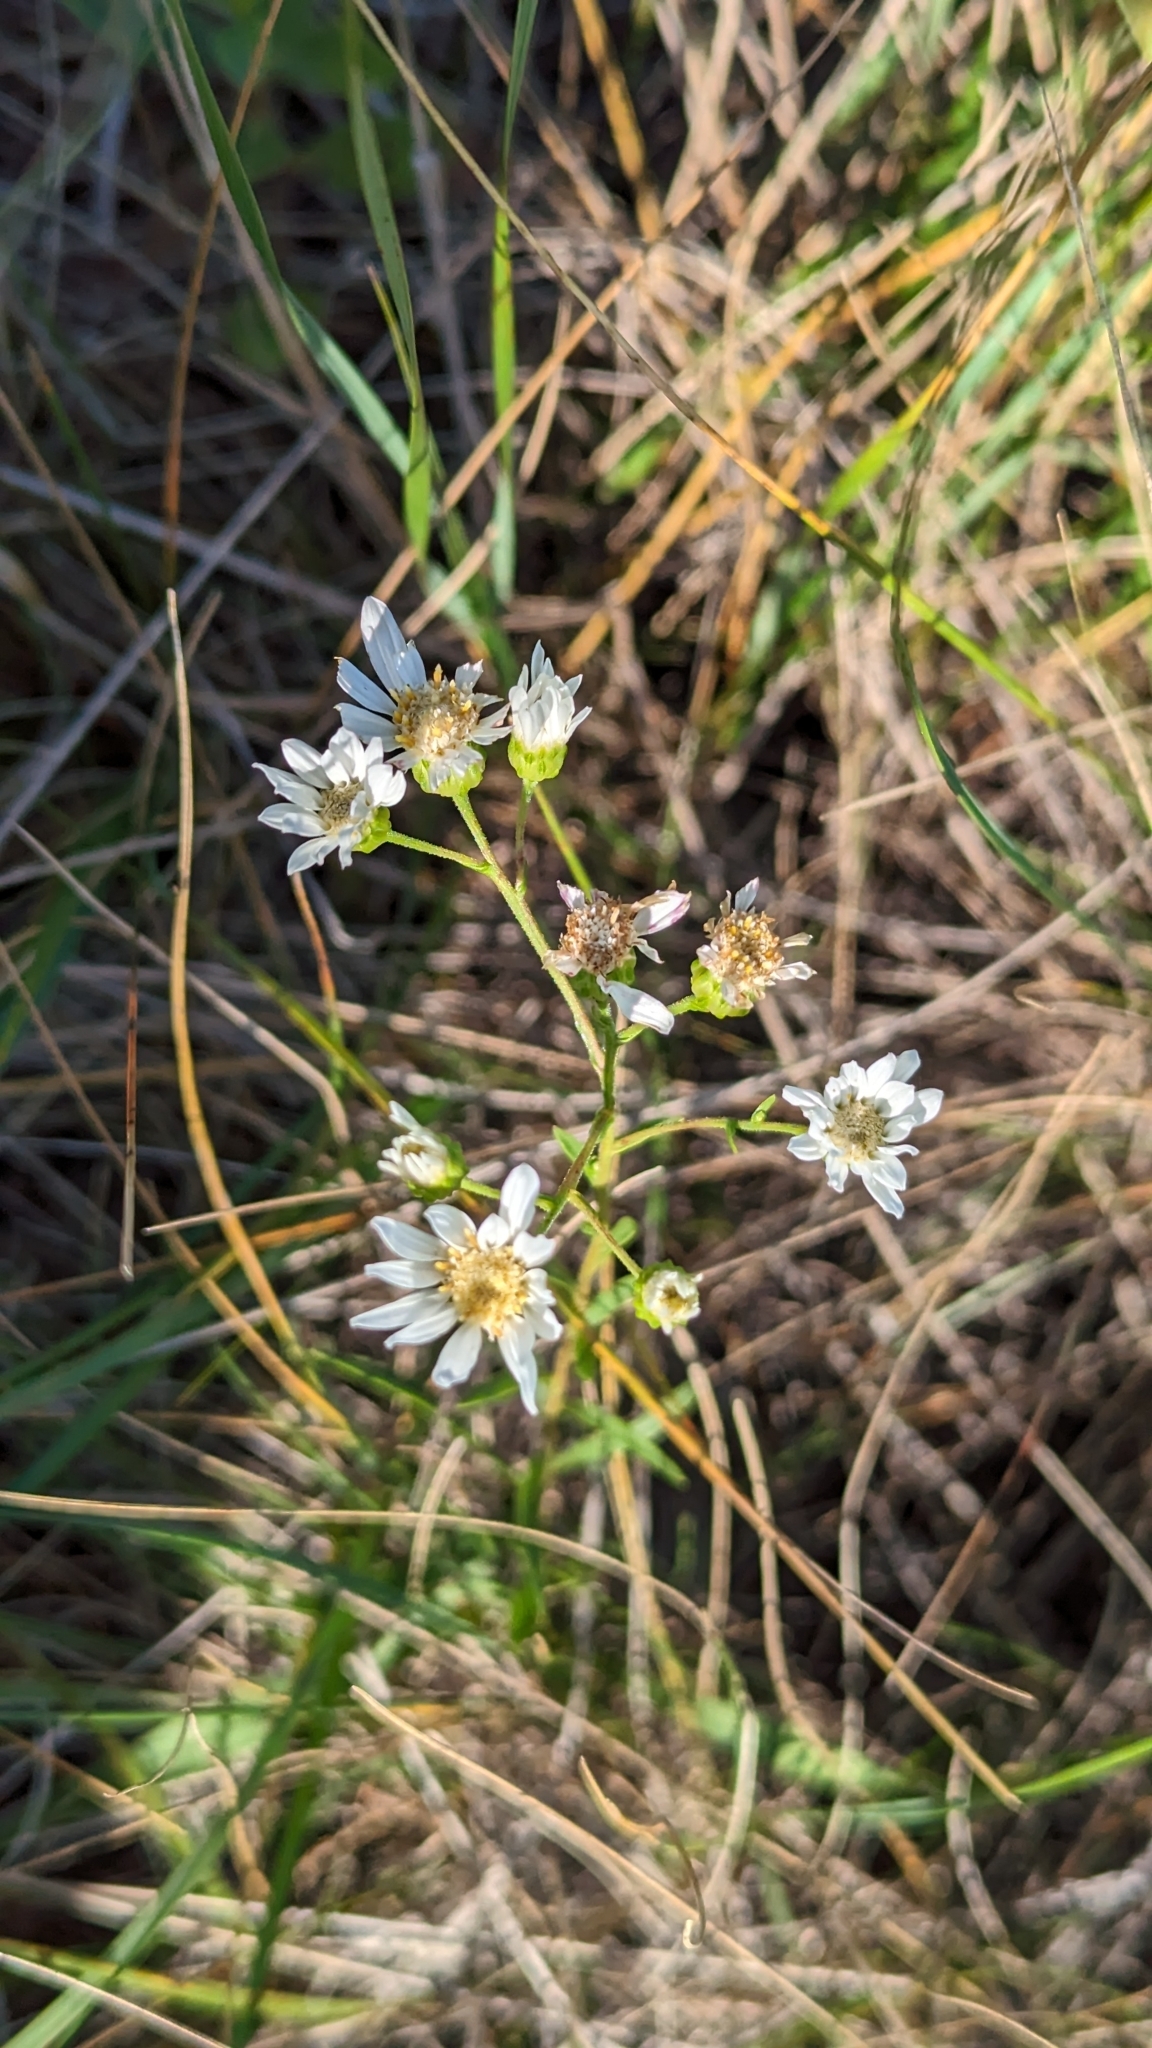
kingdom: Plantae
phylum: Tracheophyta
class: Magnoliopsida
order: Asterales
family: Asteraceae
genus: Solidago
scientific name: Solidago ptarmicoides
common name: White flat-top goldenrod
